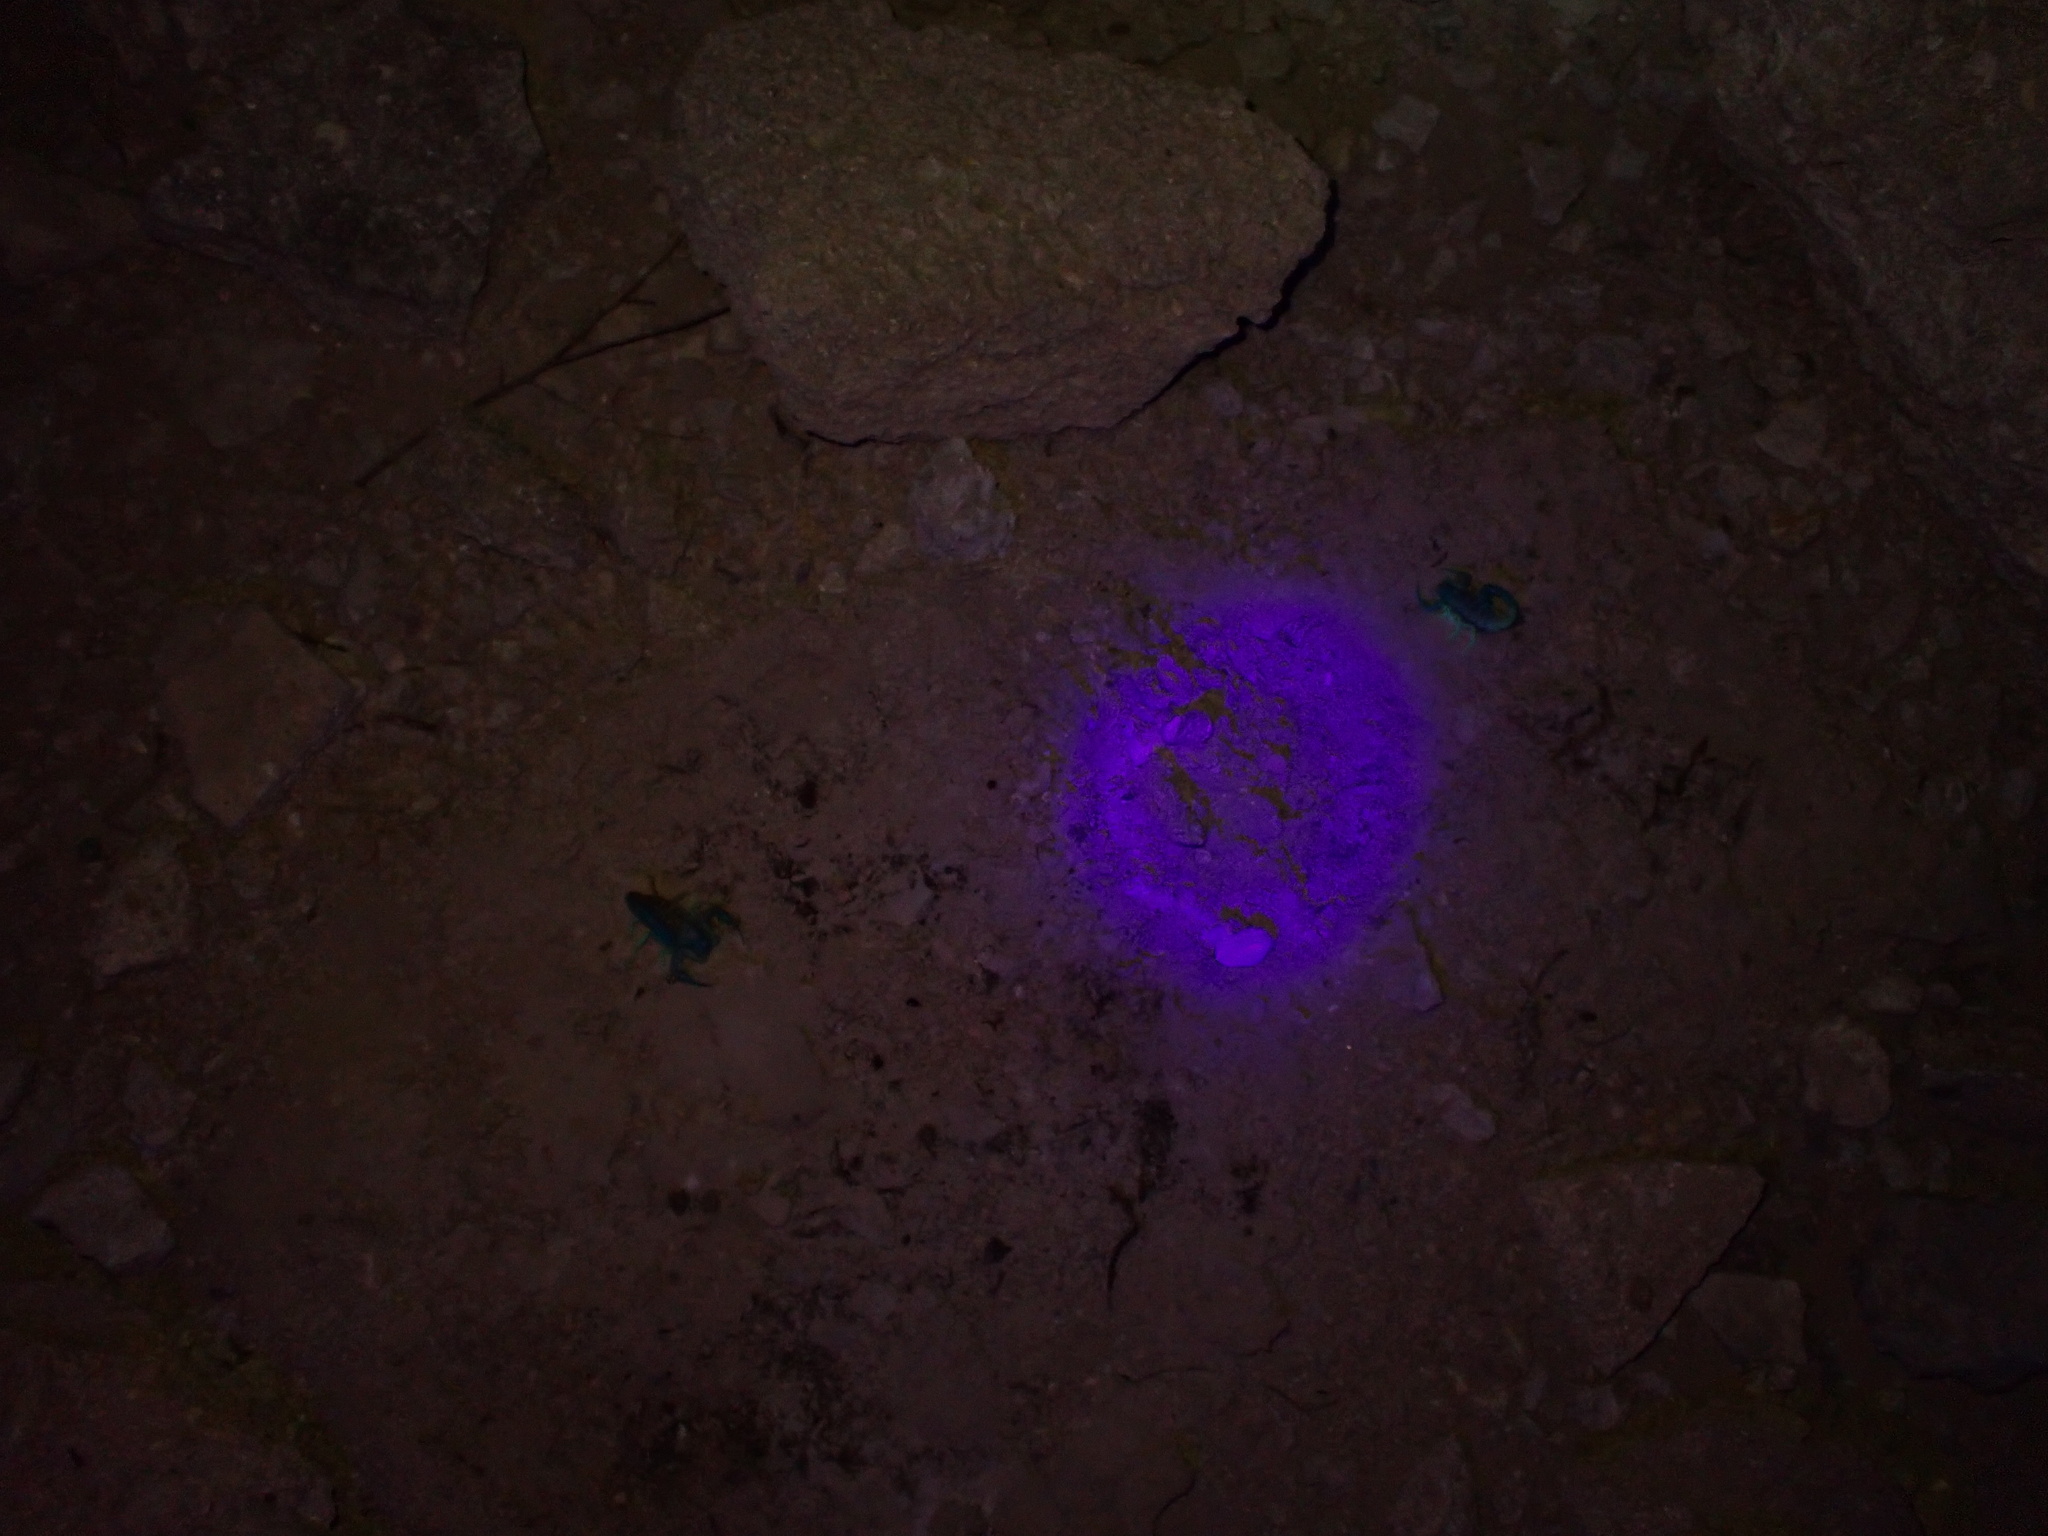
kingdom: Animalia
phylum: Arthropoda
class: Arachnida
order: Scorpiones
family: Buthidae
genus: Hottentotta
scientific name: Hottentotta jayakari
